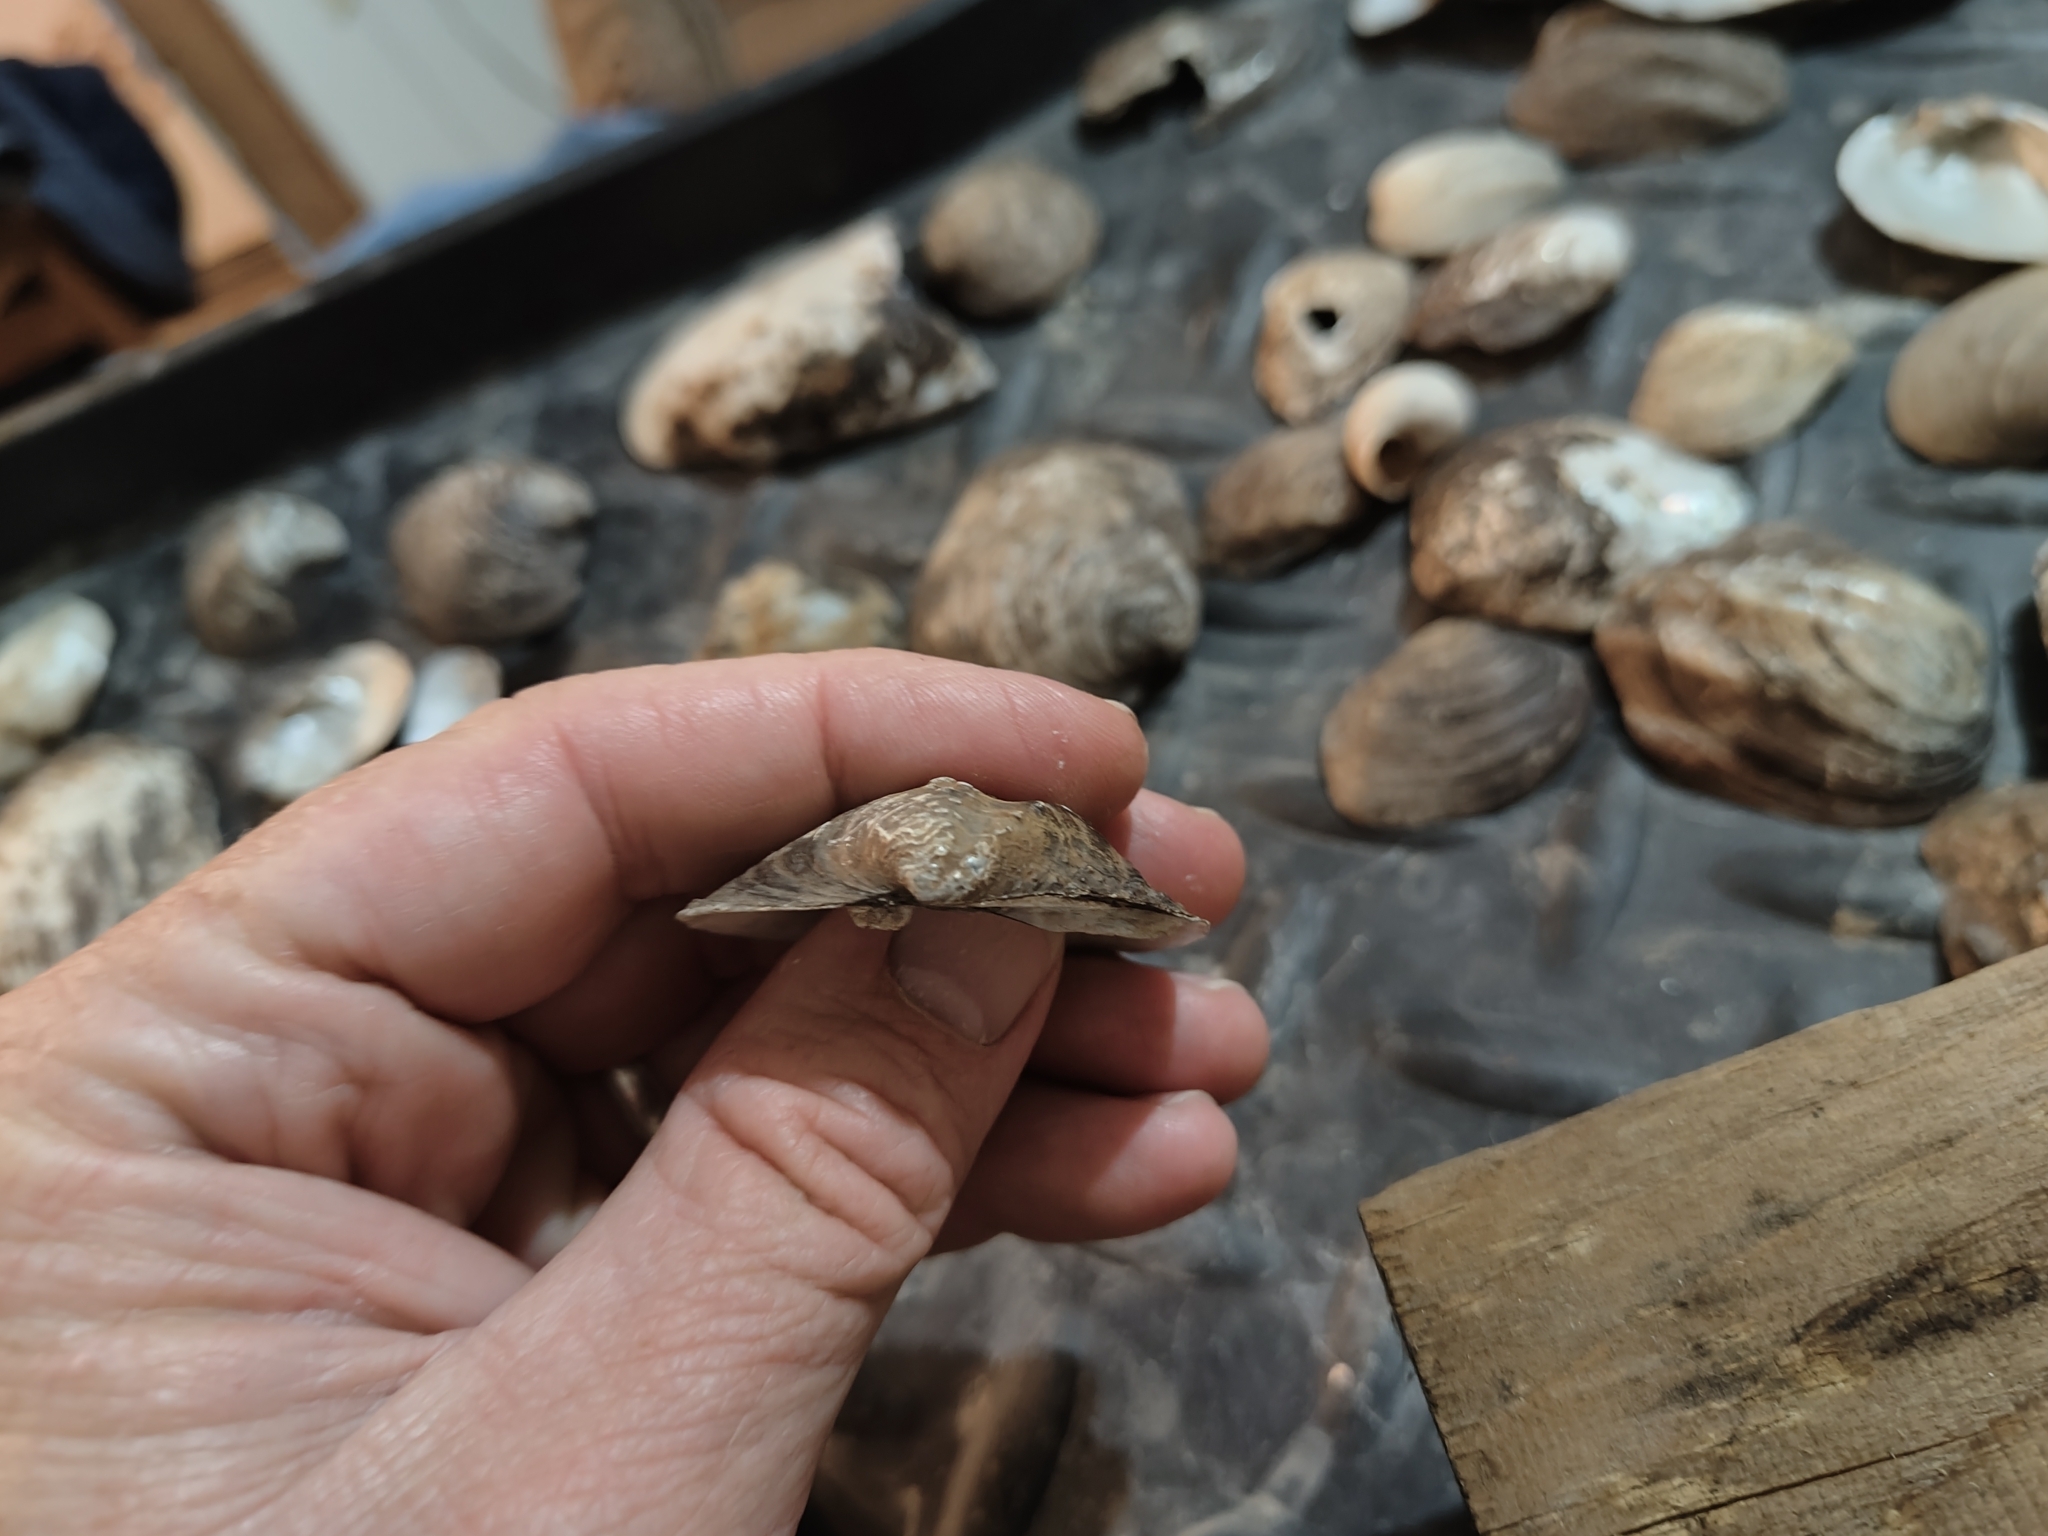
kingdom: Animalia
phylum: Mollusca
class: Bivalvia
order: Unionida
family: Unionidae
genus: Quadrula
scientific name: Quadrula quadrula
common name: Mapleleaf
